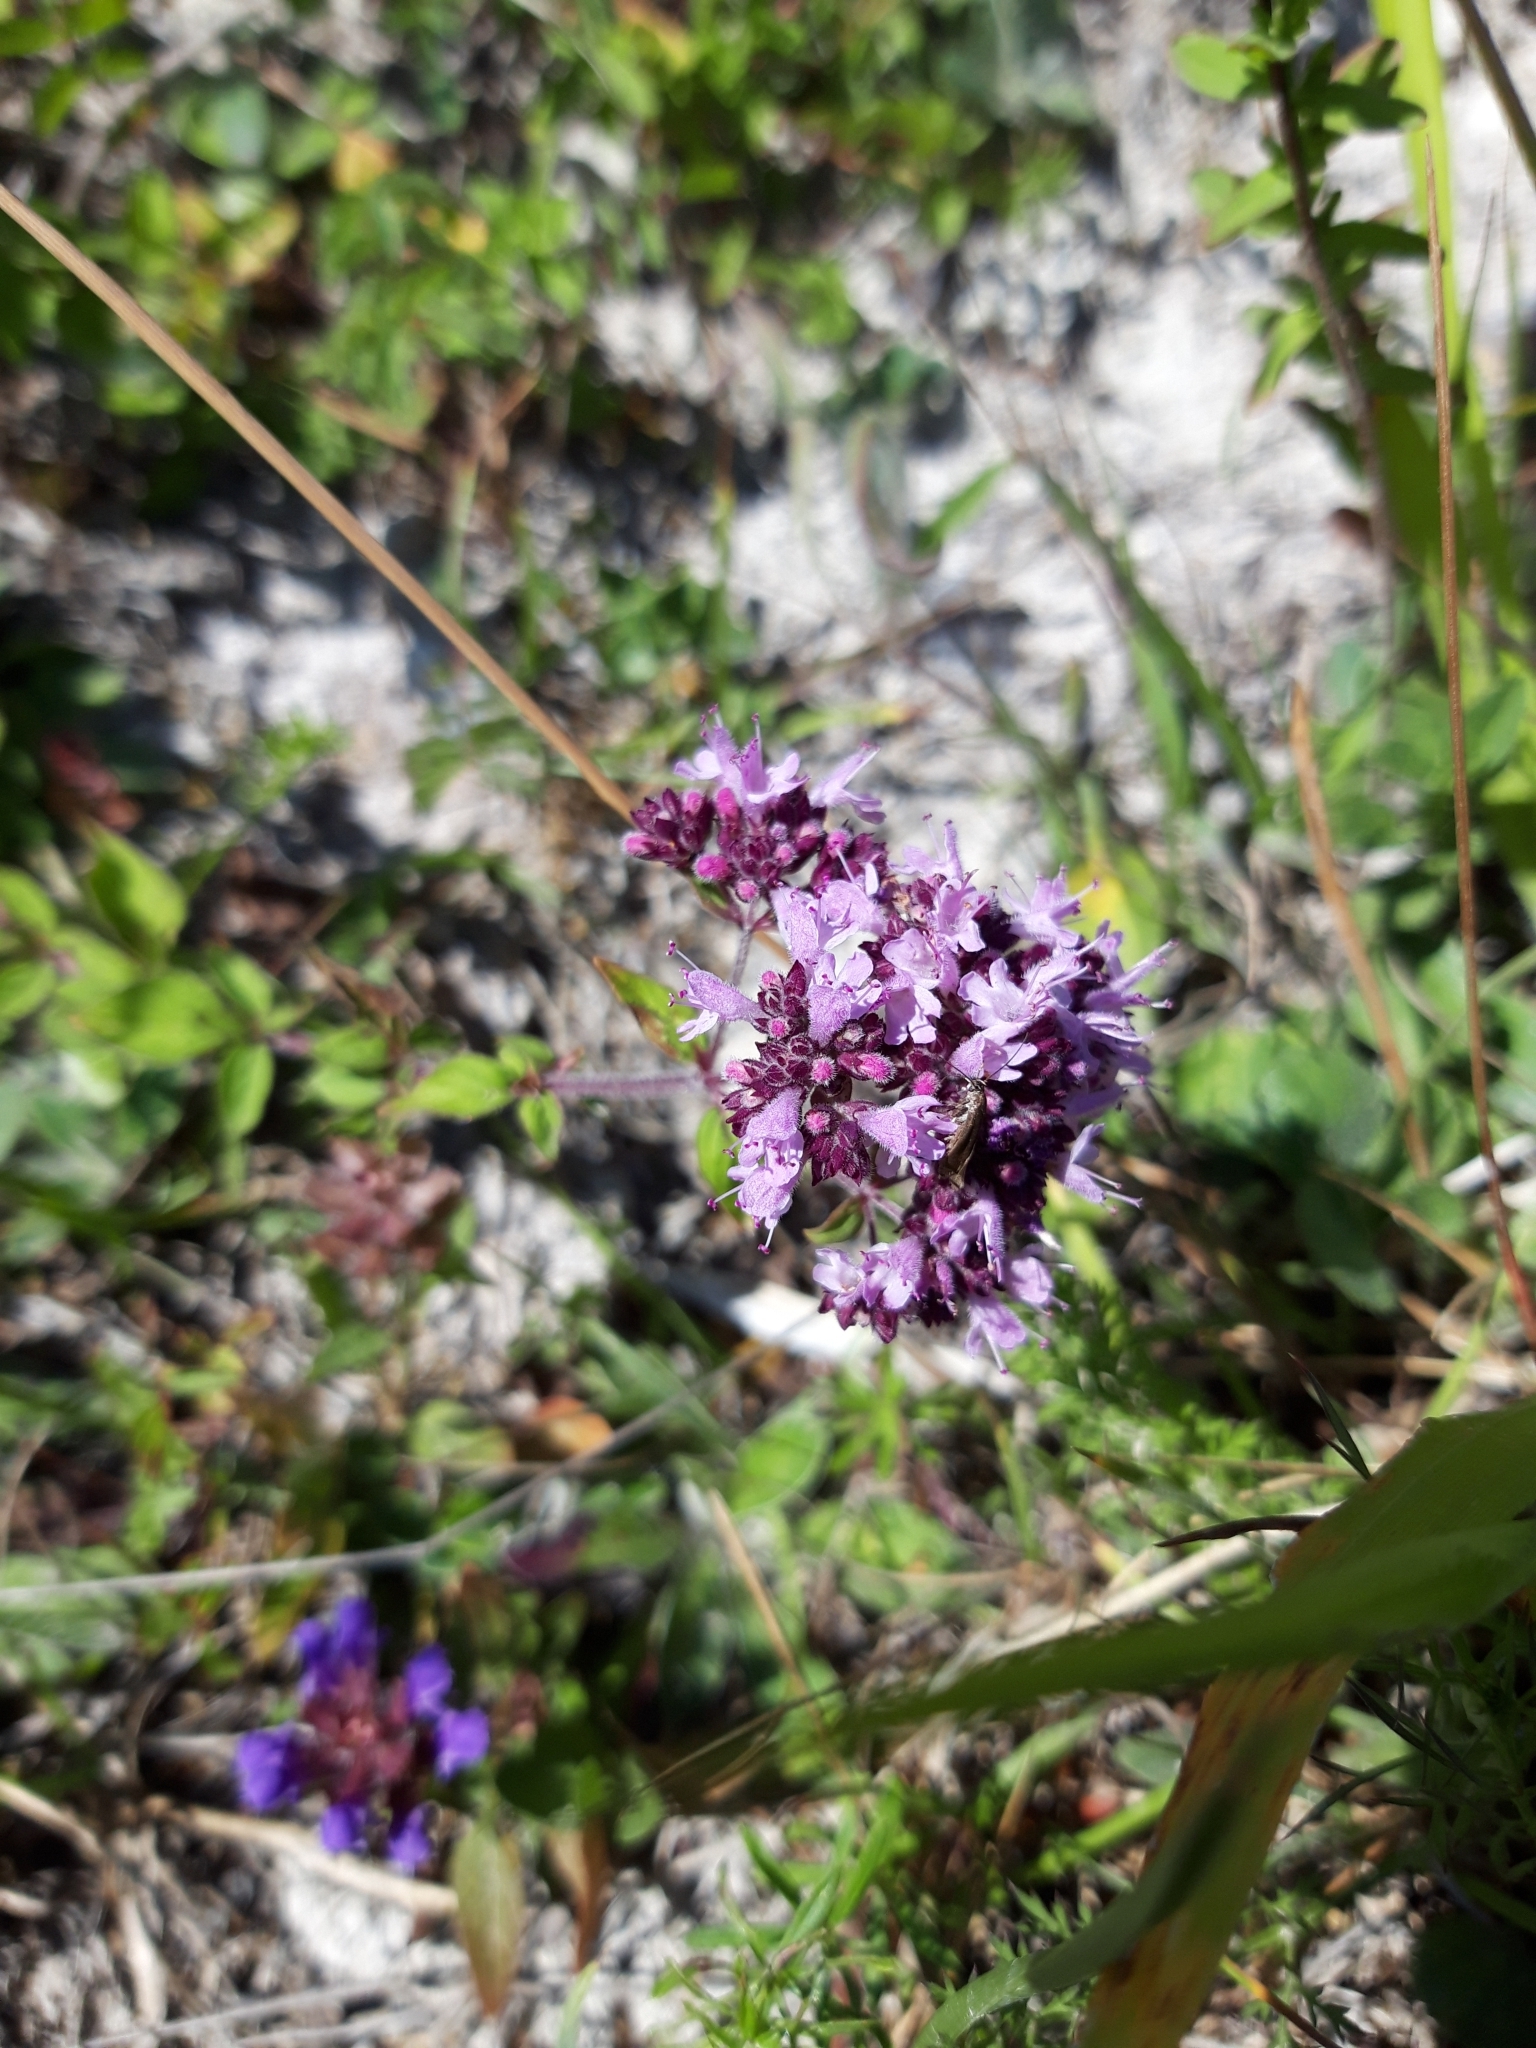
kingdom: Plantae
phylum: Tracheophyta
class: Magnoliopsida
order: Lamiales
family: Lamiaceae
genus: Origanum
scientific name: Origanum vulgare
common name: Wild marjoram
